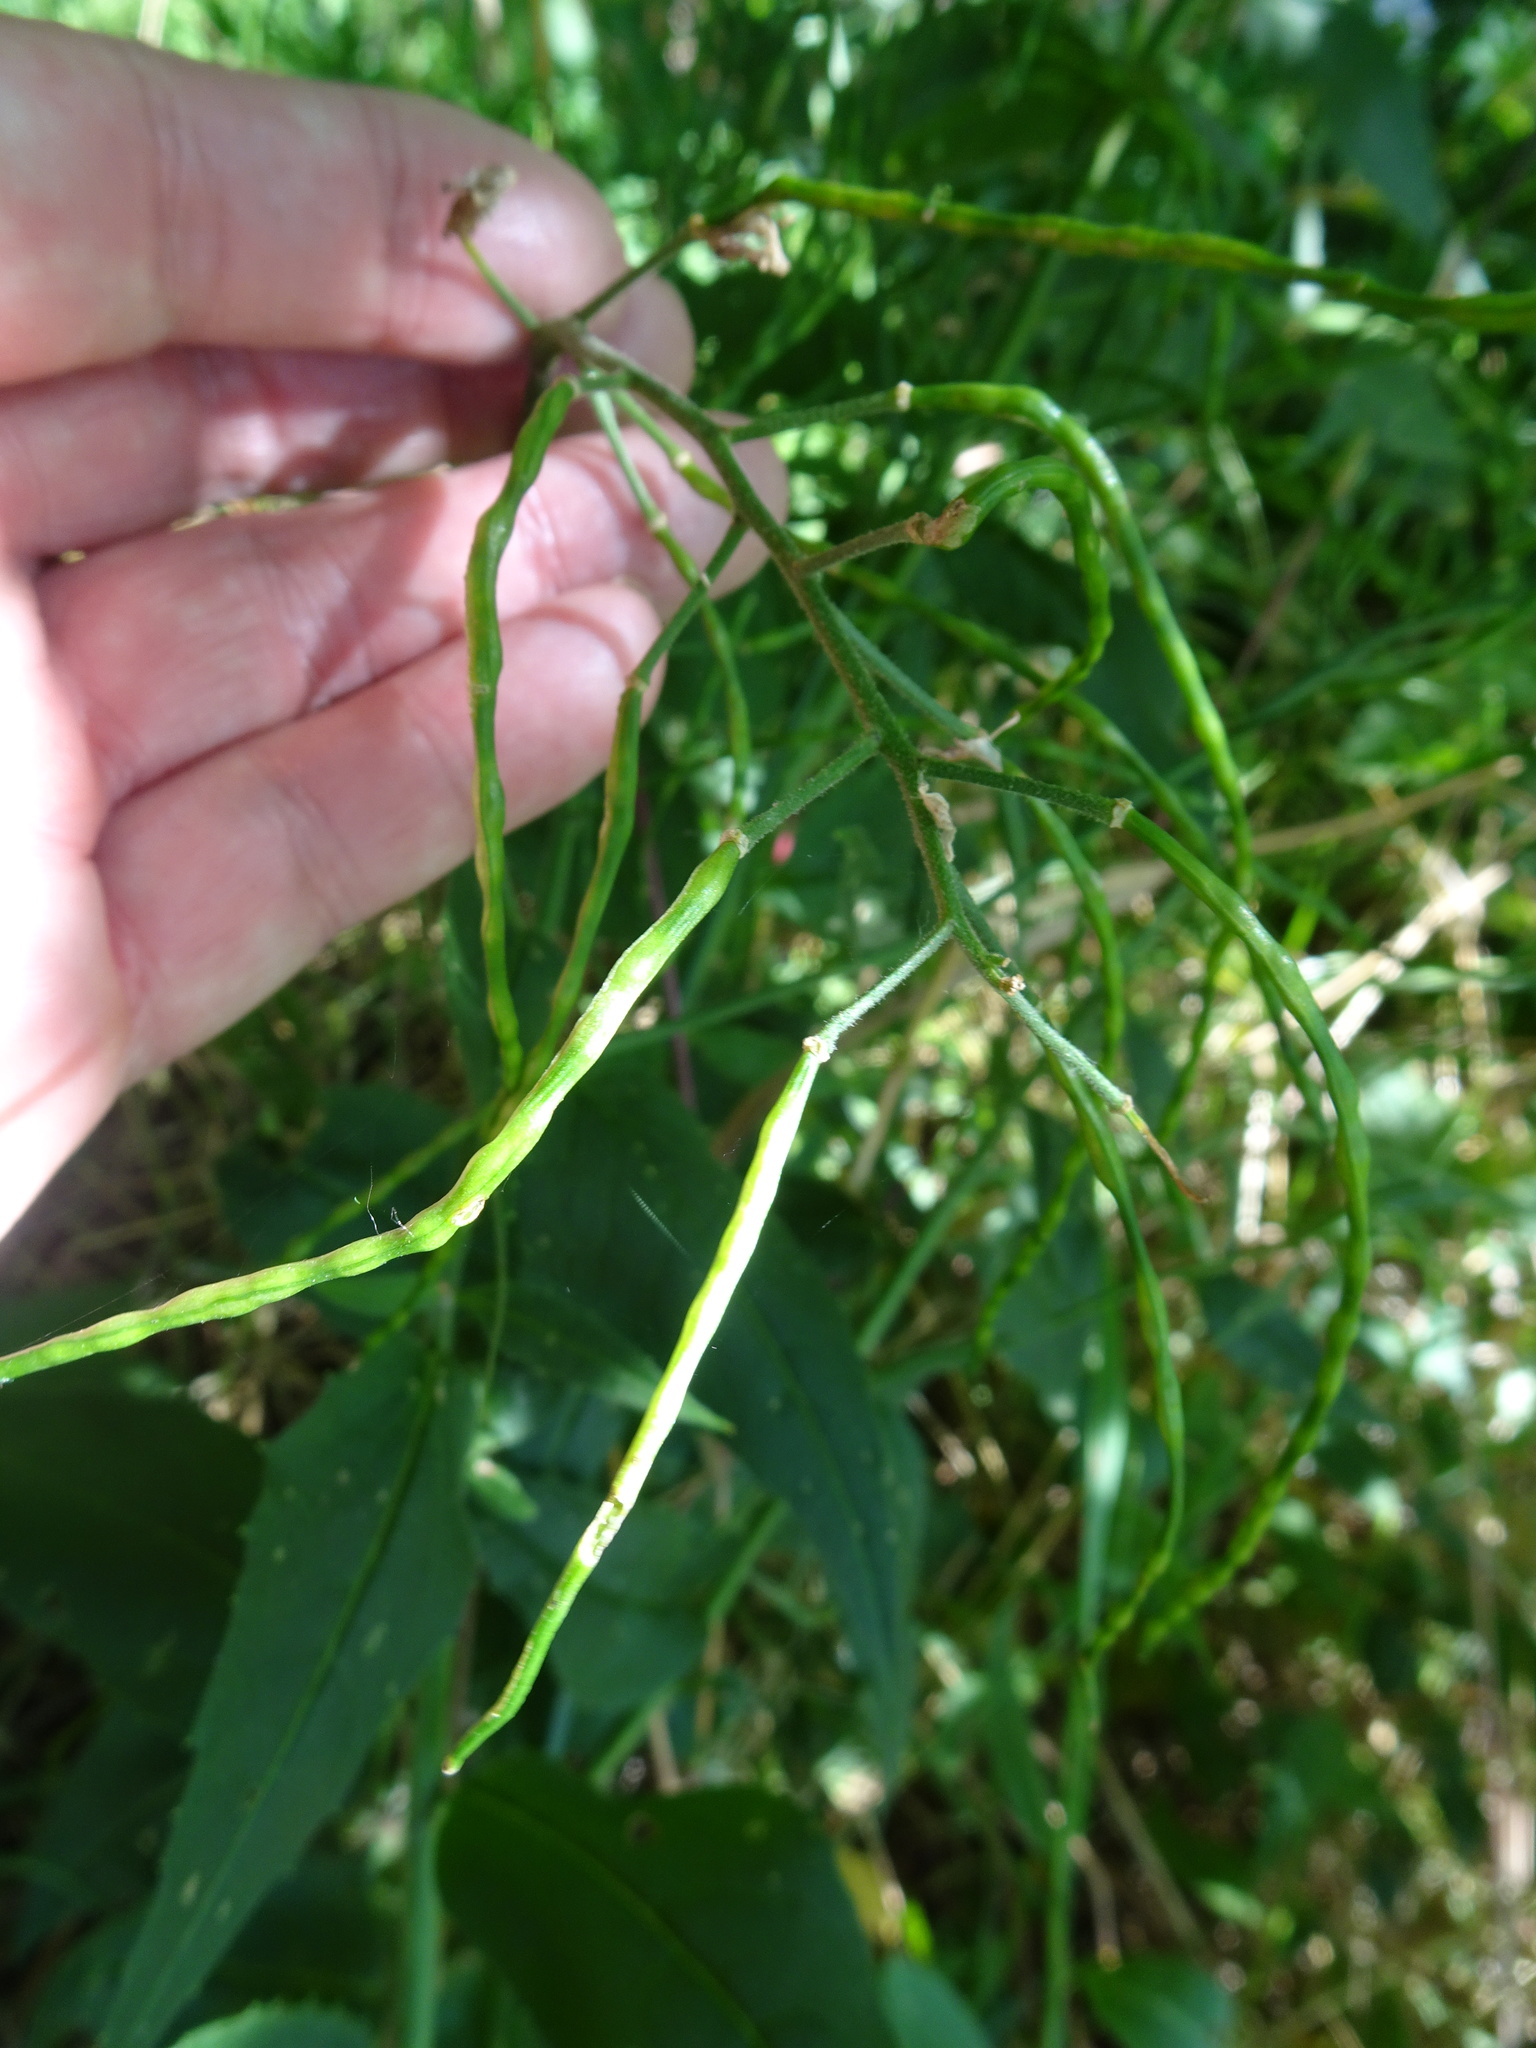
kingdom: Plantae
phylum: Tracheophyta
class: Magnoliopsida
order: Brassicales
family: Brassicaceae
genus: Hesperis
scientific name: Hesperis matronalis
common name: Dame's-violet
